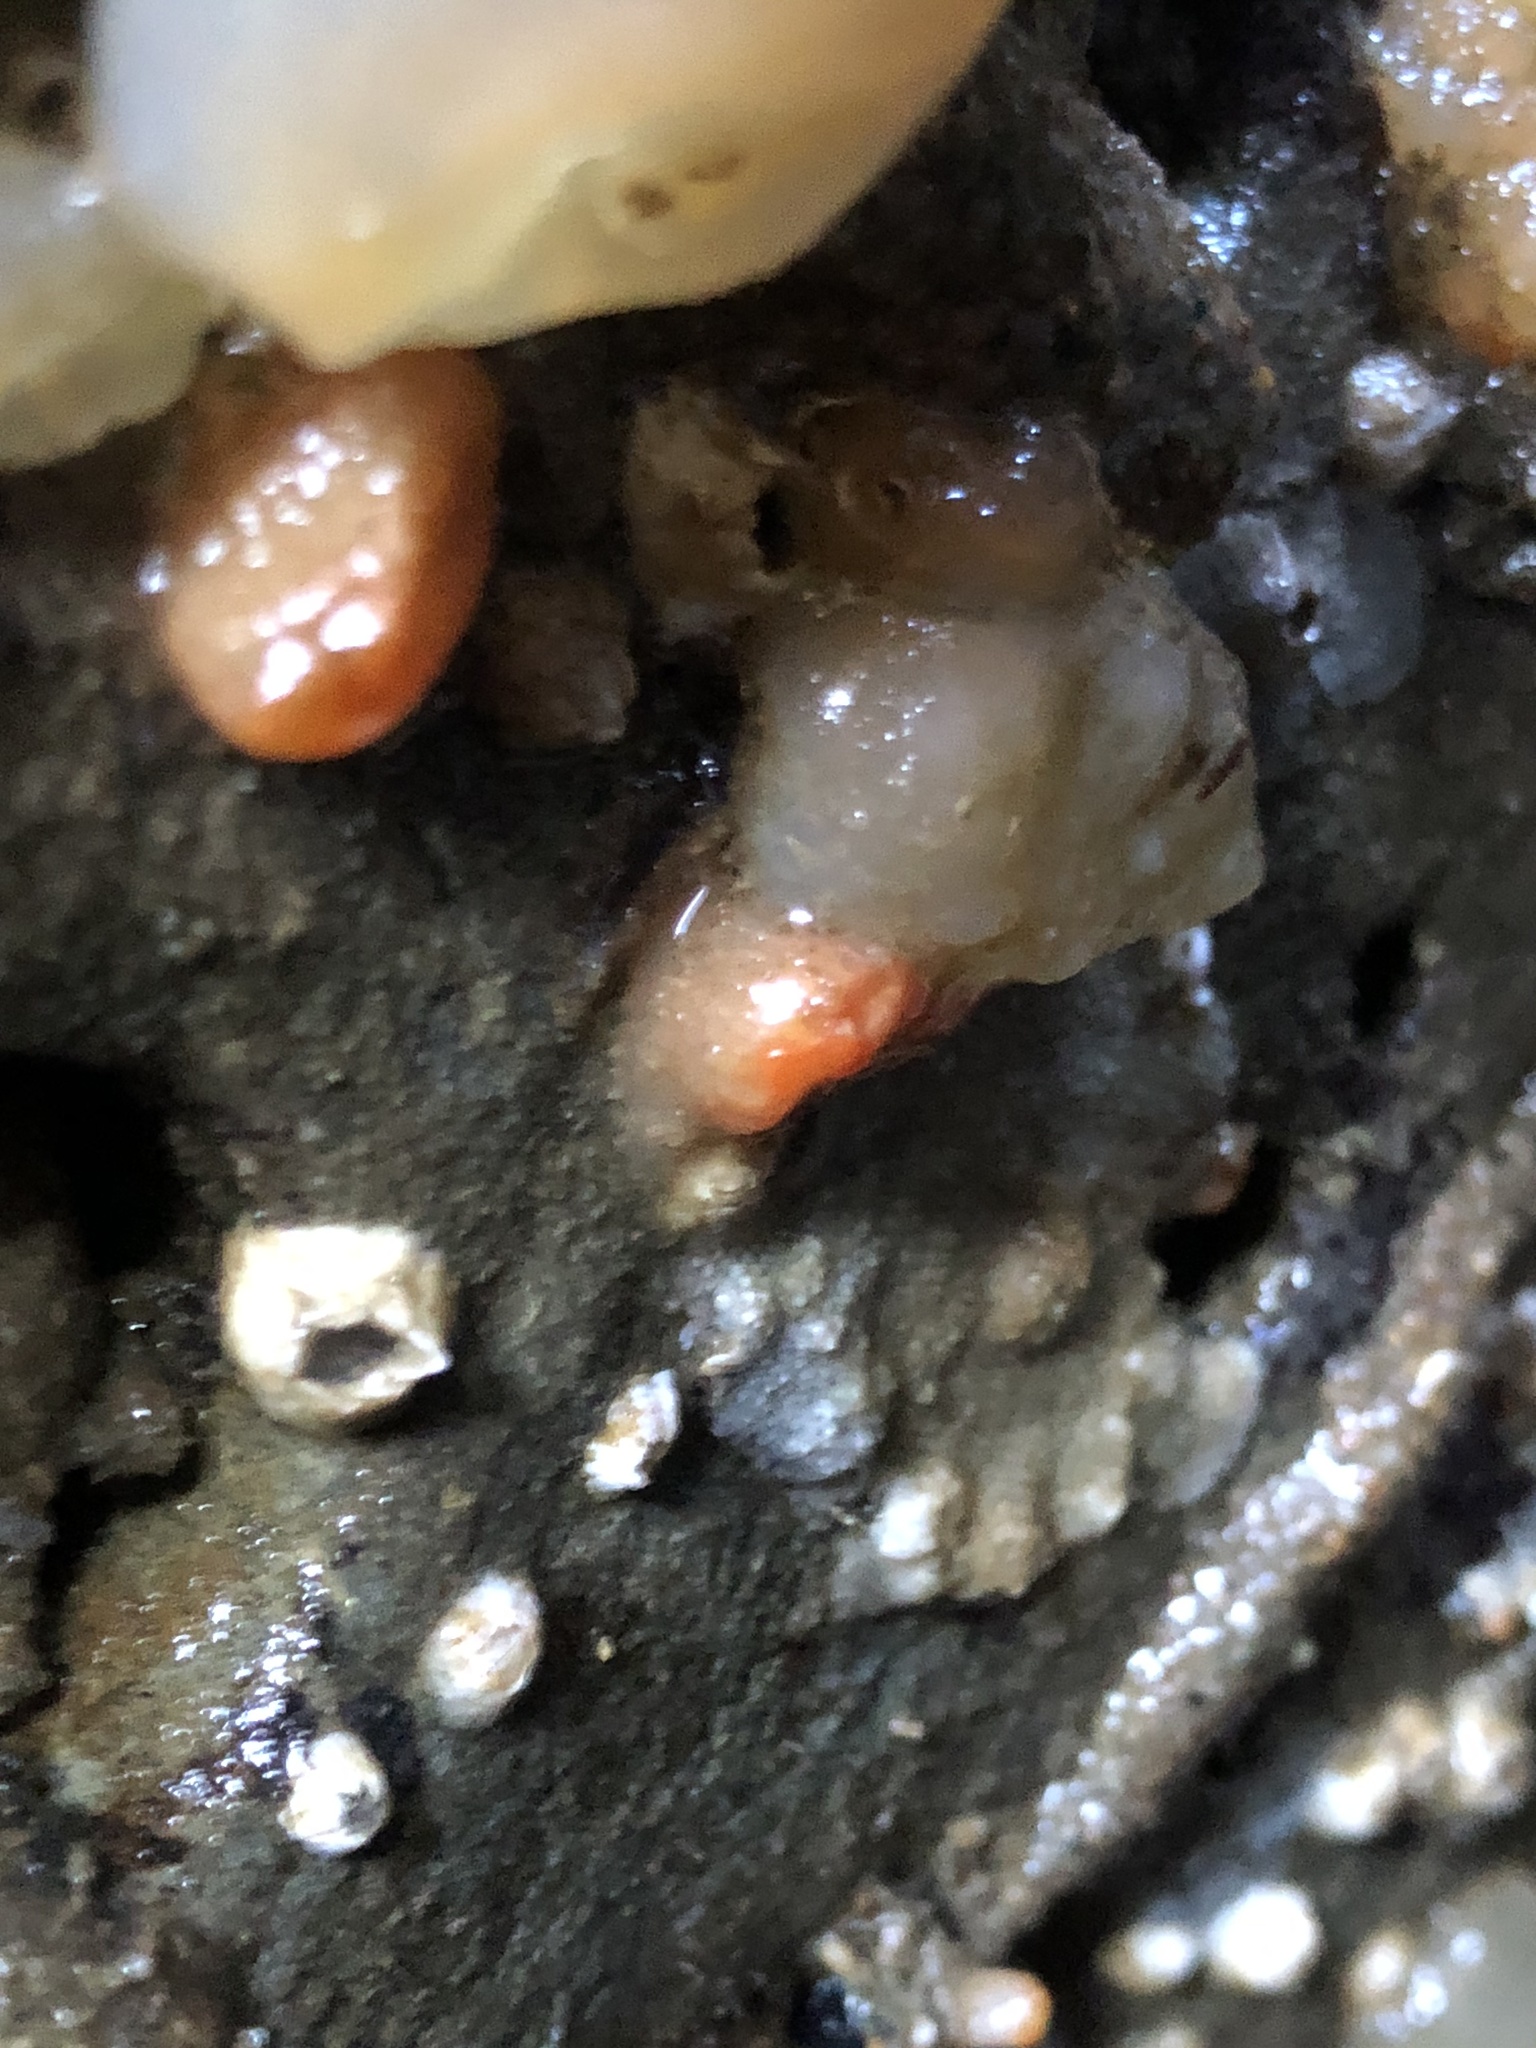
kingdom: Animalia
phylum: Mollusca
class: Bivalvia
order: Adapedonta
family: Hiatellidae
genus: Hiatella
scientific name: Hiatella arctica
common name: Arctic hiatella
